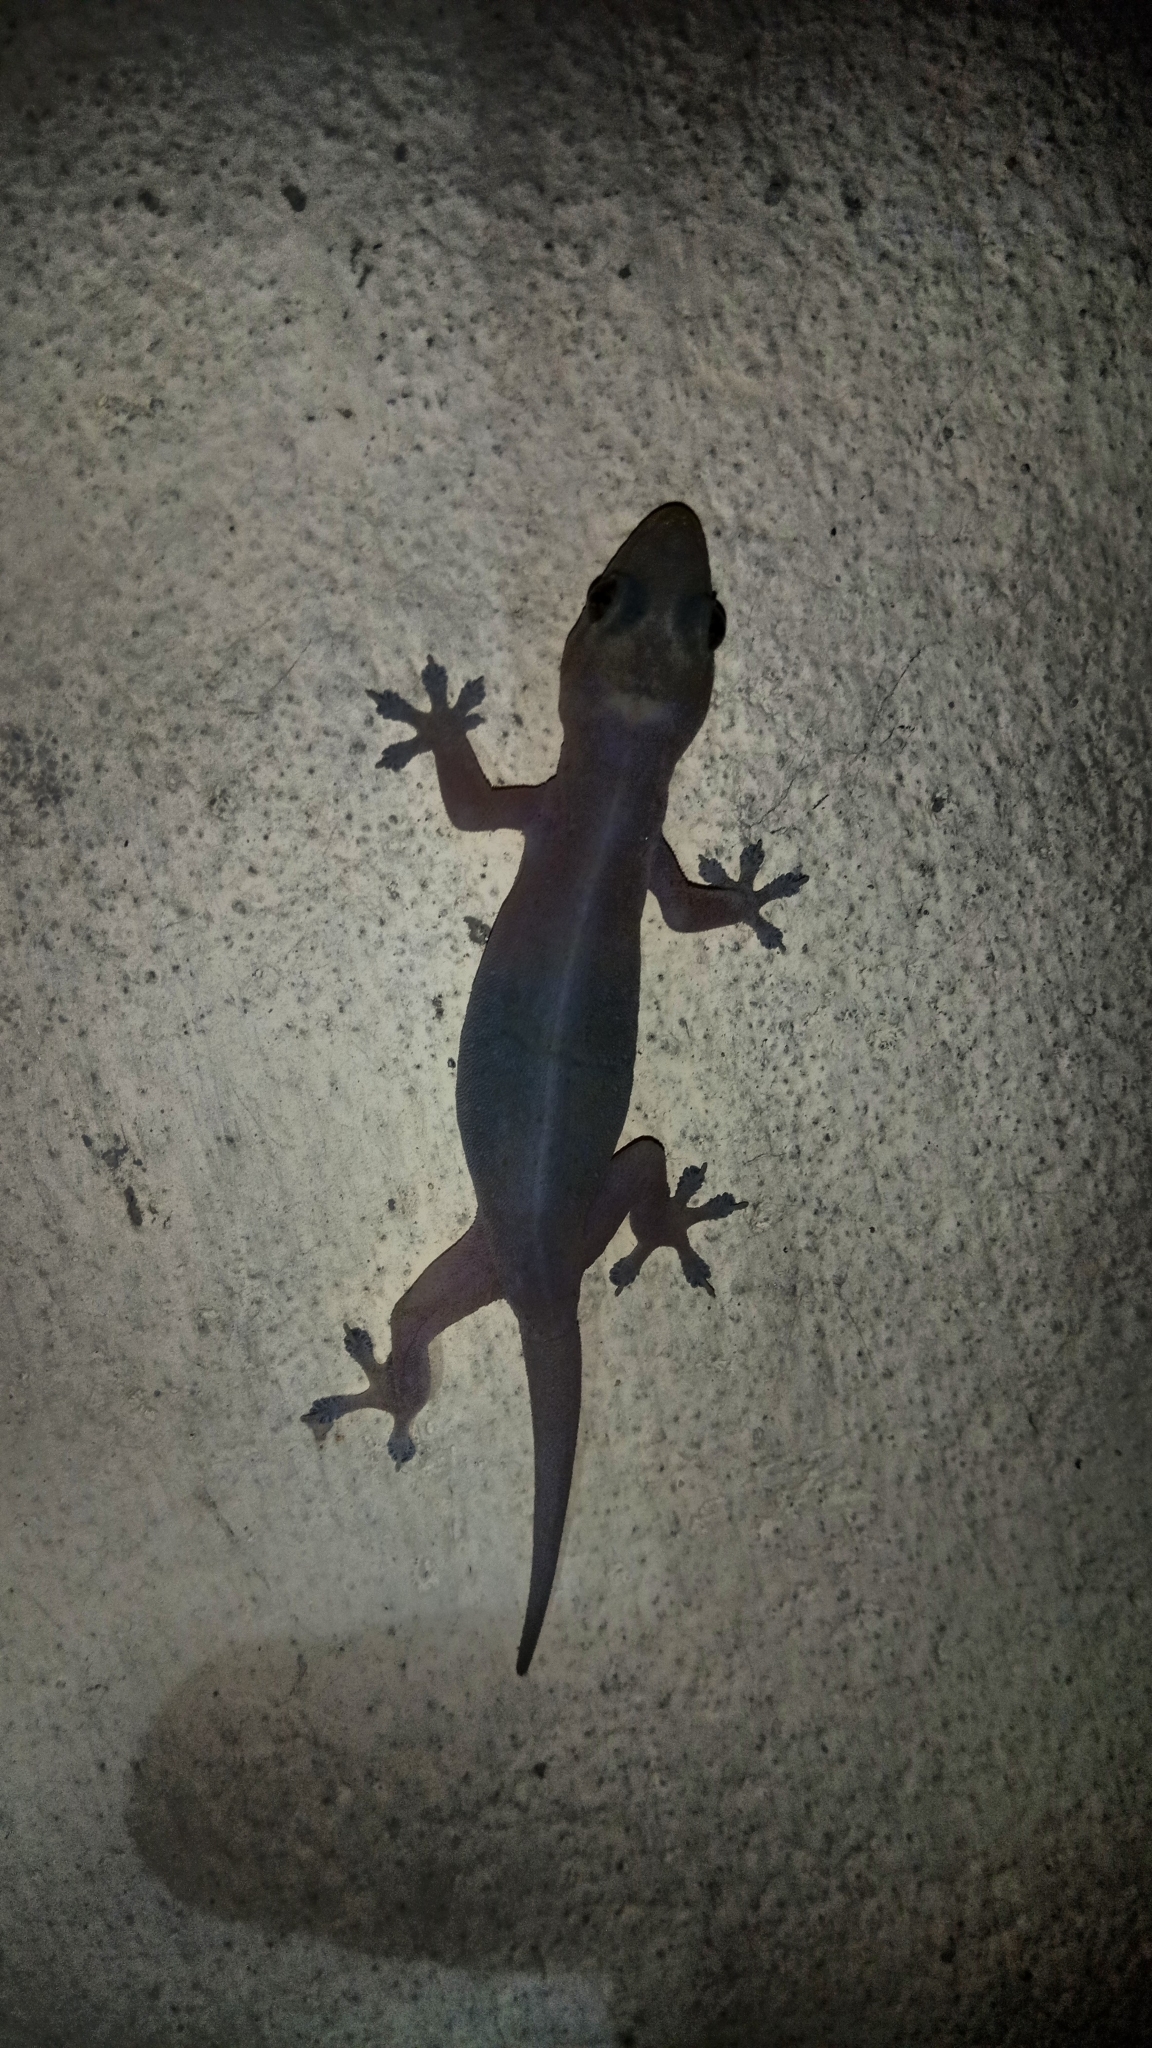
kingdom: Animalia
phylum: Chordata
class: Squamata
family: Gekkonidae
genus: Hemidactylus
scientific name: Hemidactylus frenatus
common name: Common house gecko
